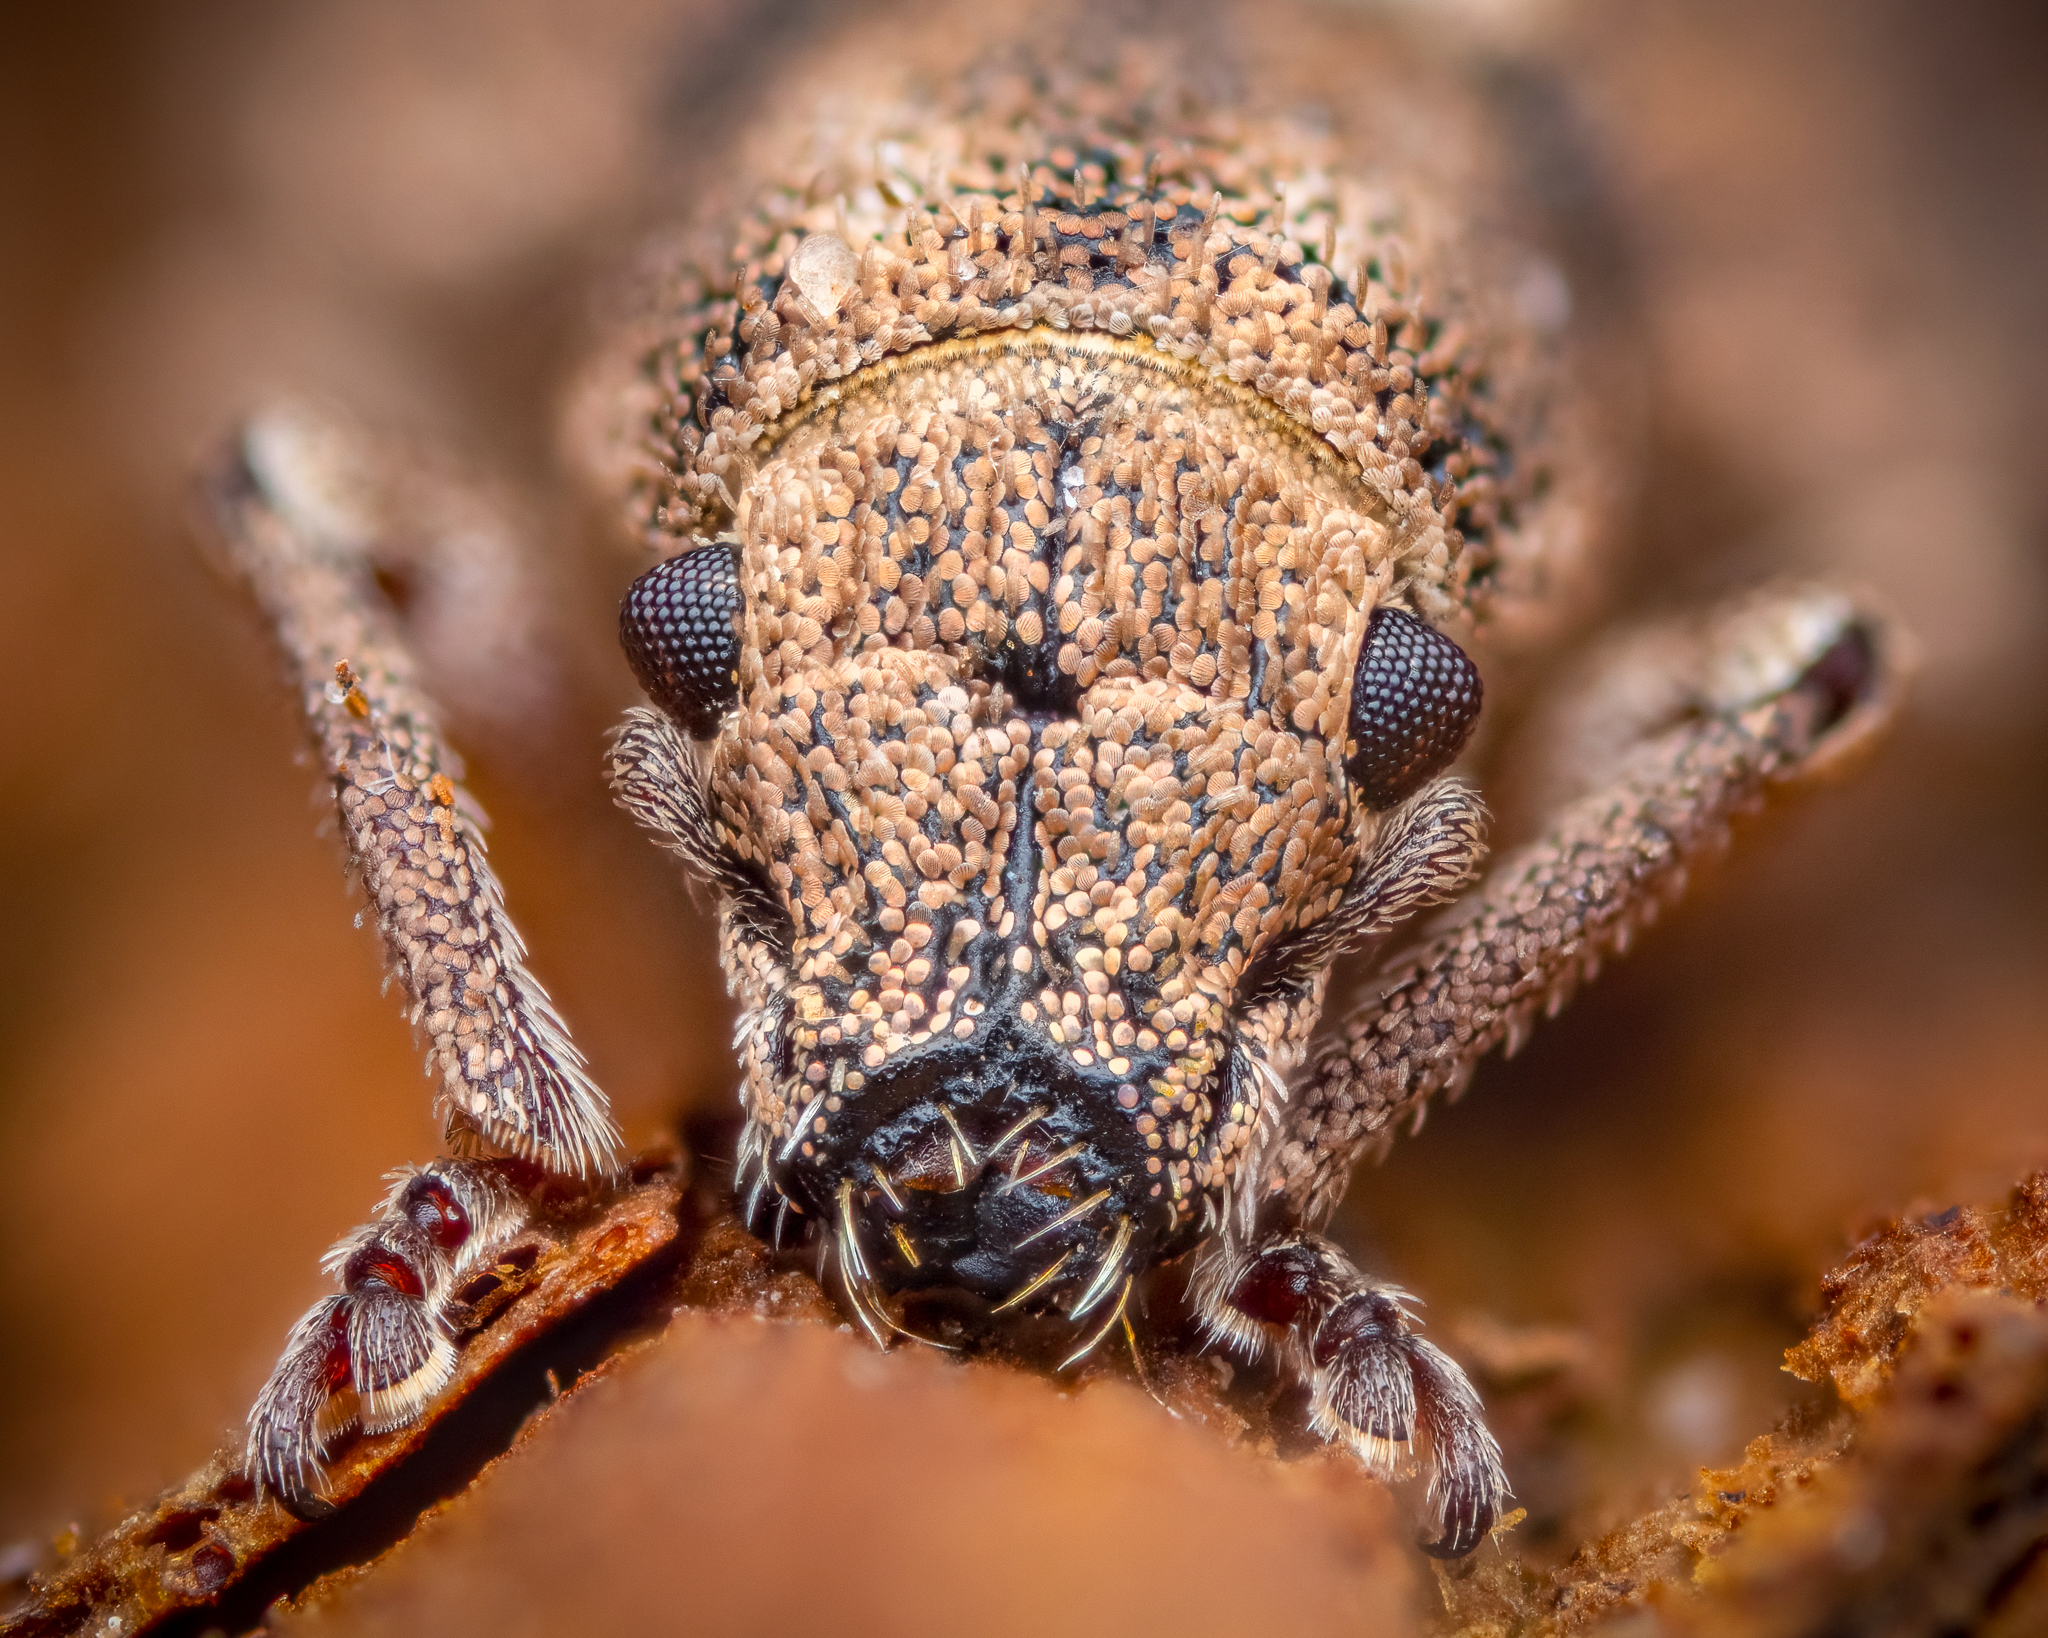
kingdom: Animalia
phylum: Arthropoda
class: Insecta
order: Coleoptera
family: Curculionidae
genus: Strophosoma
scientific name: Strophosoma melanogrammum
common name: Weevil
